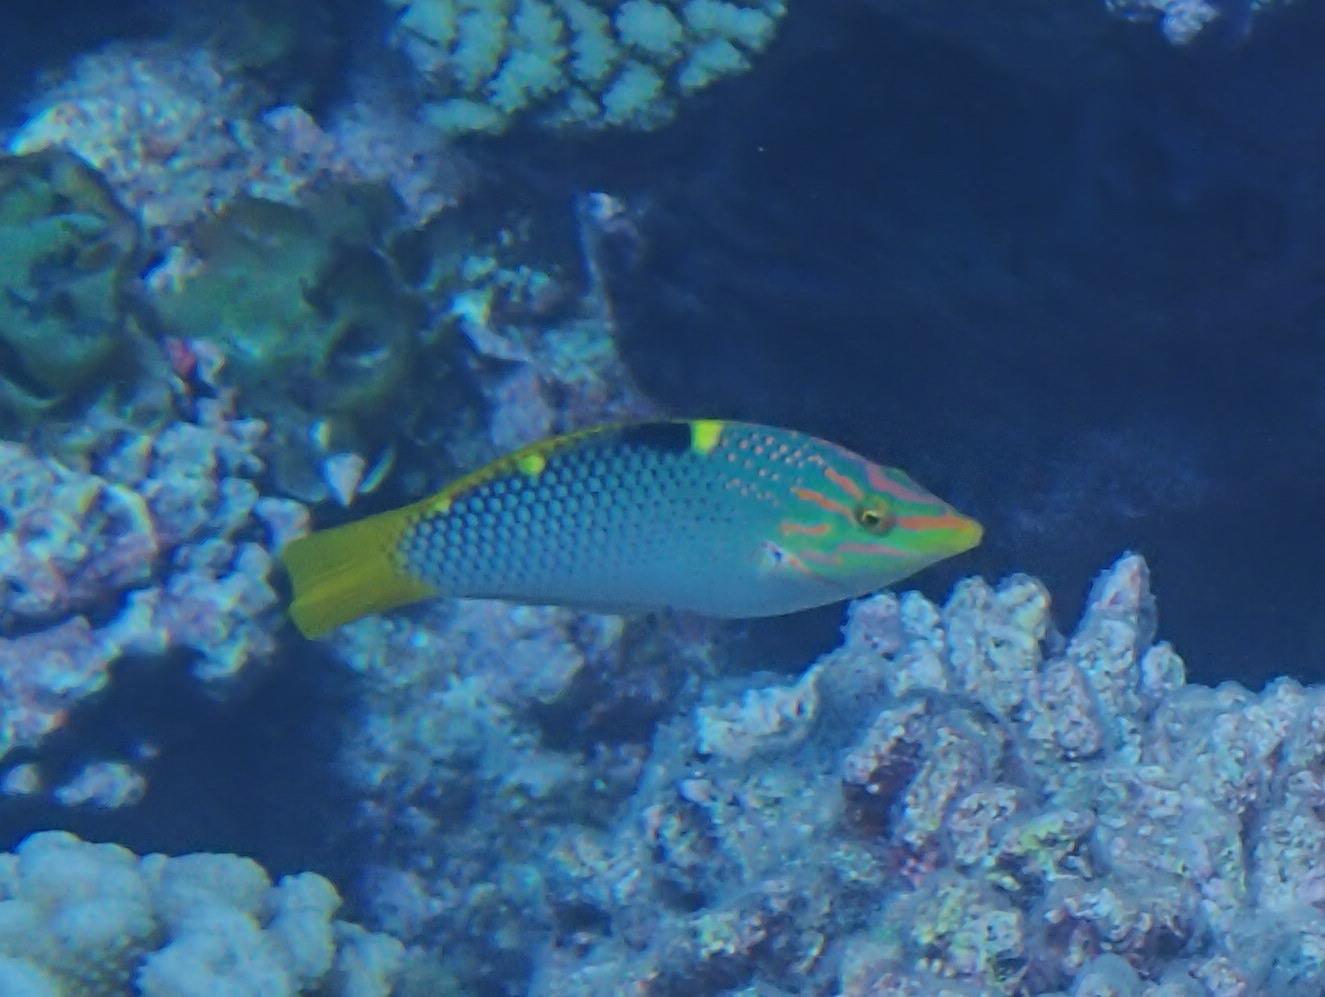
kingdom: Animalia
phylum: Chordata
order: Perciformes
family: Labridae
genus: Halichoeres
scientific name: Halichoeres hortulanus
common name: Checkerboard wrasse
